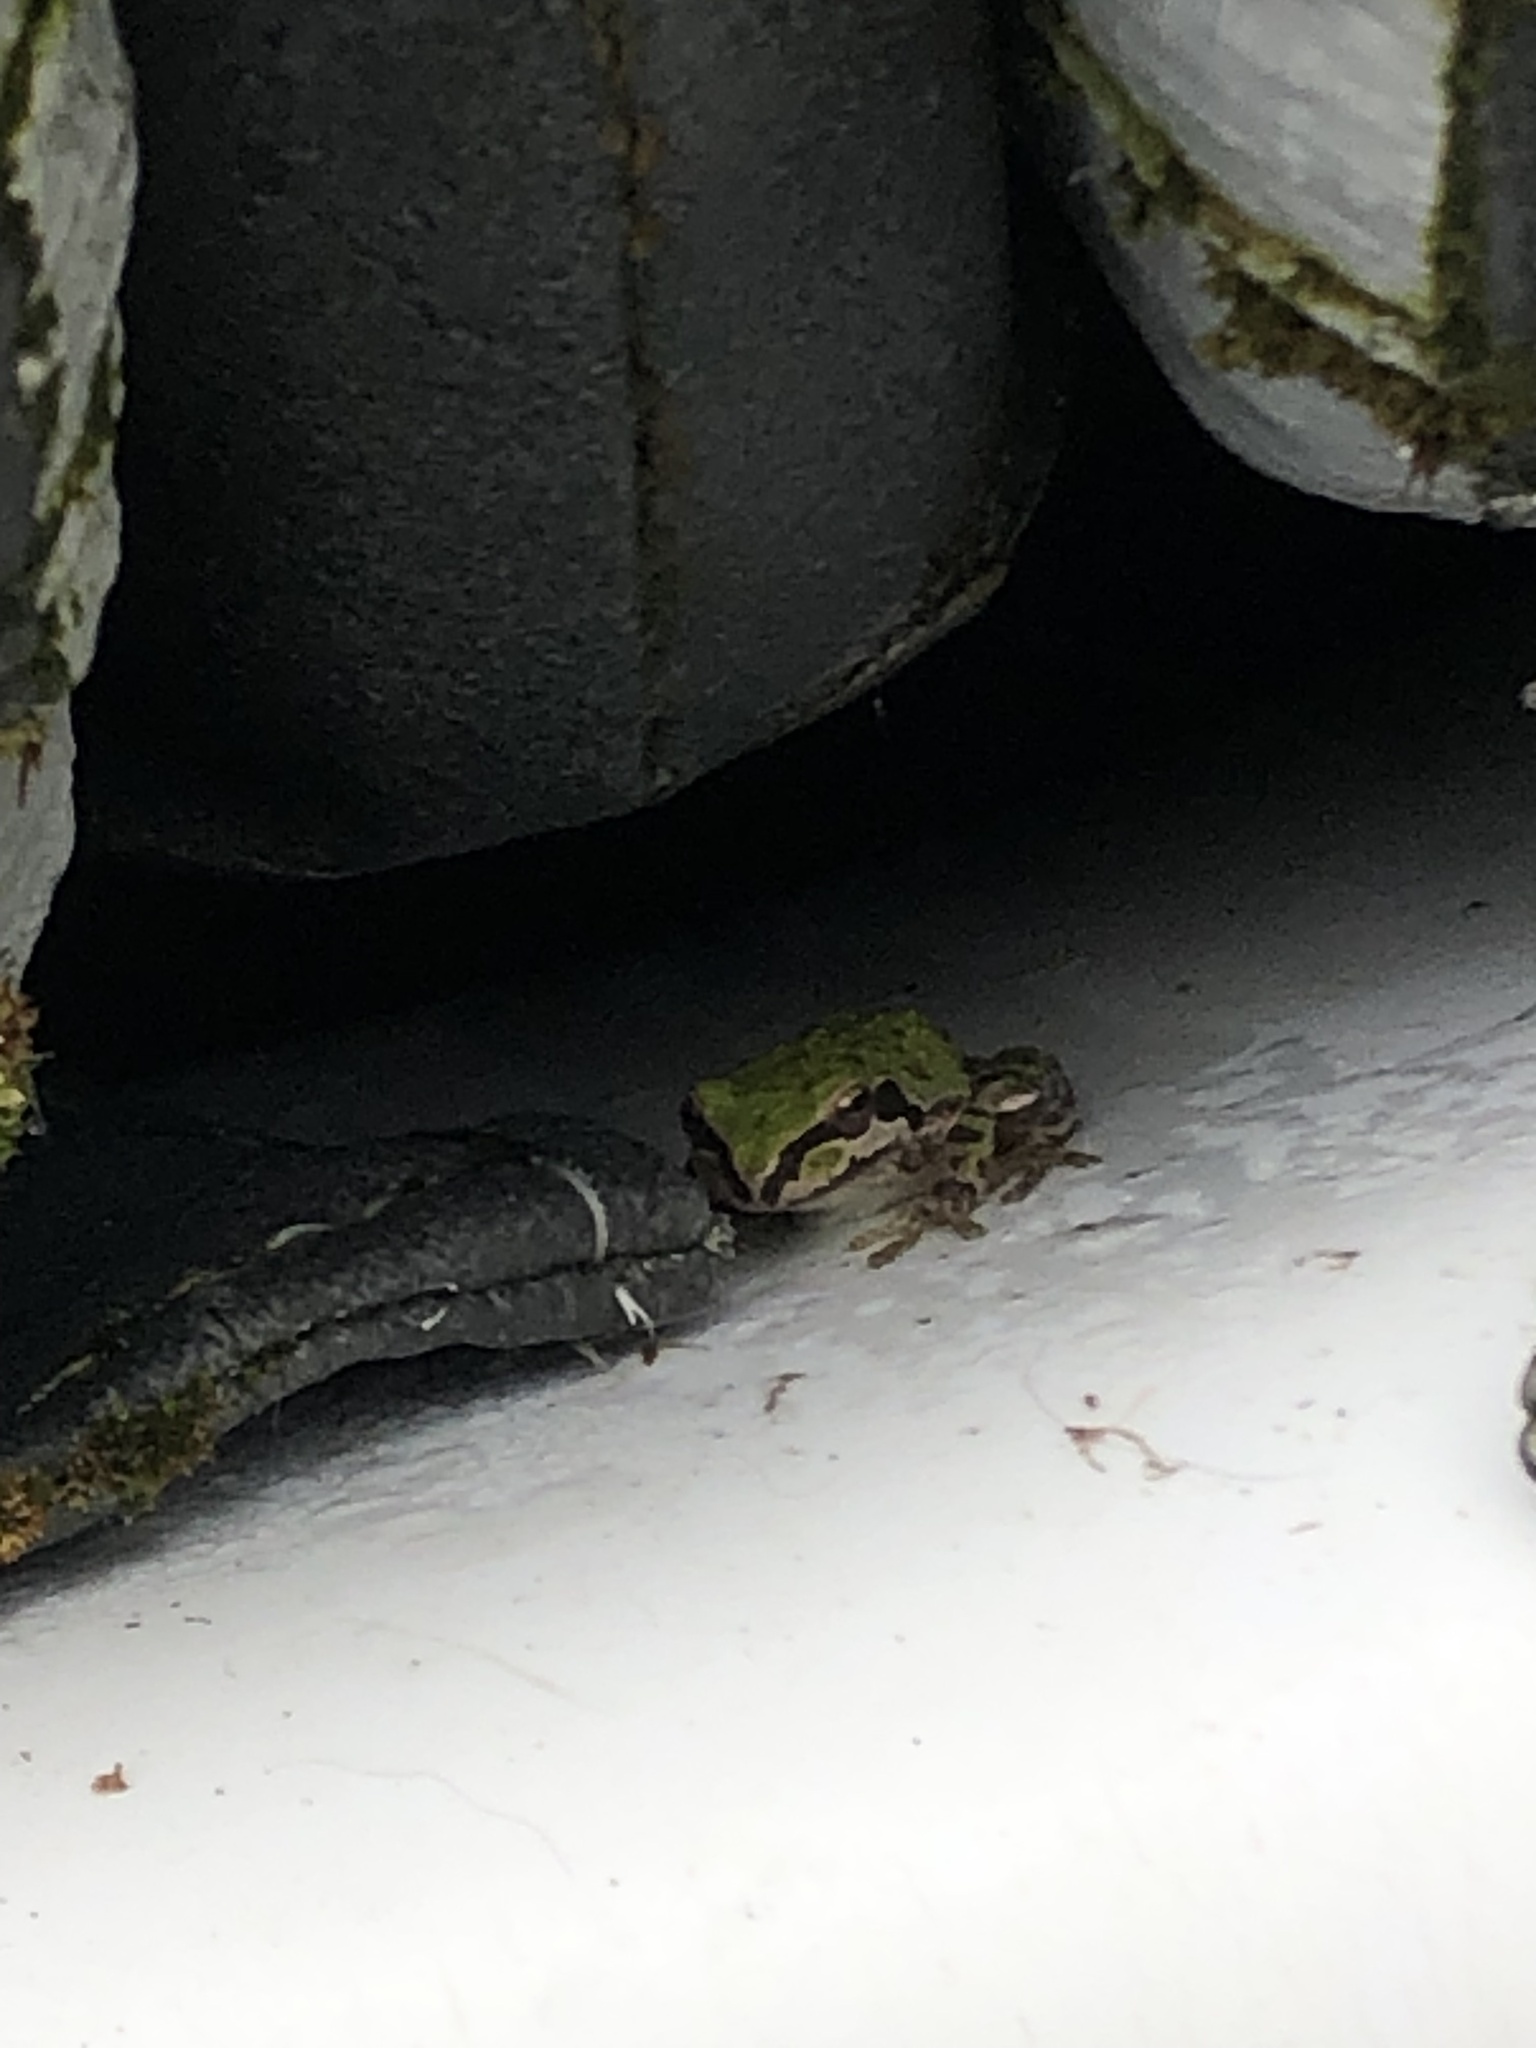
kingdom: Animalia
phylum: Chordata
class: Amphibia
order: Anura
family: Hylidae
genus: Pseudacris
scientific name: Pseudacris regilla
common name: Pacific chorus frog
